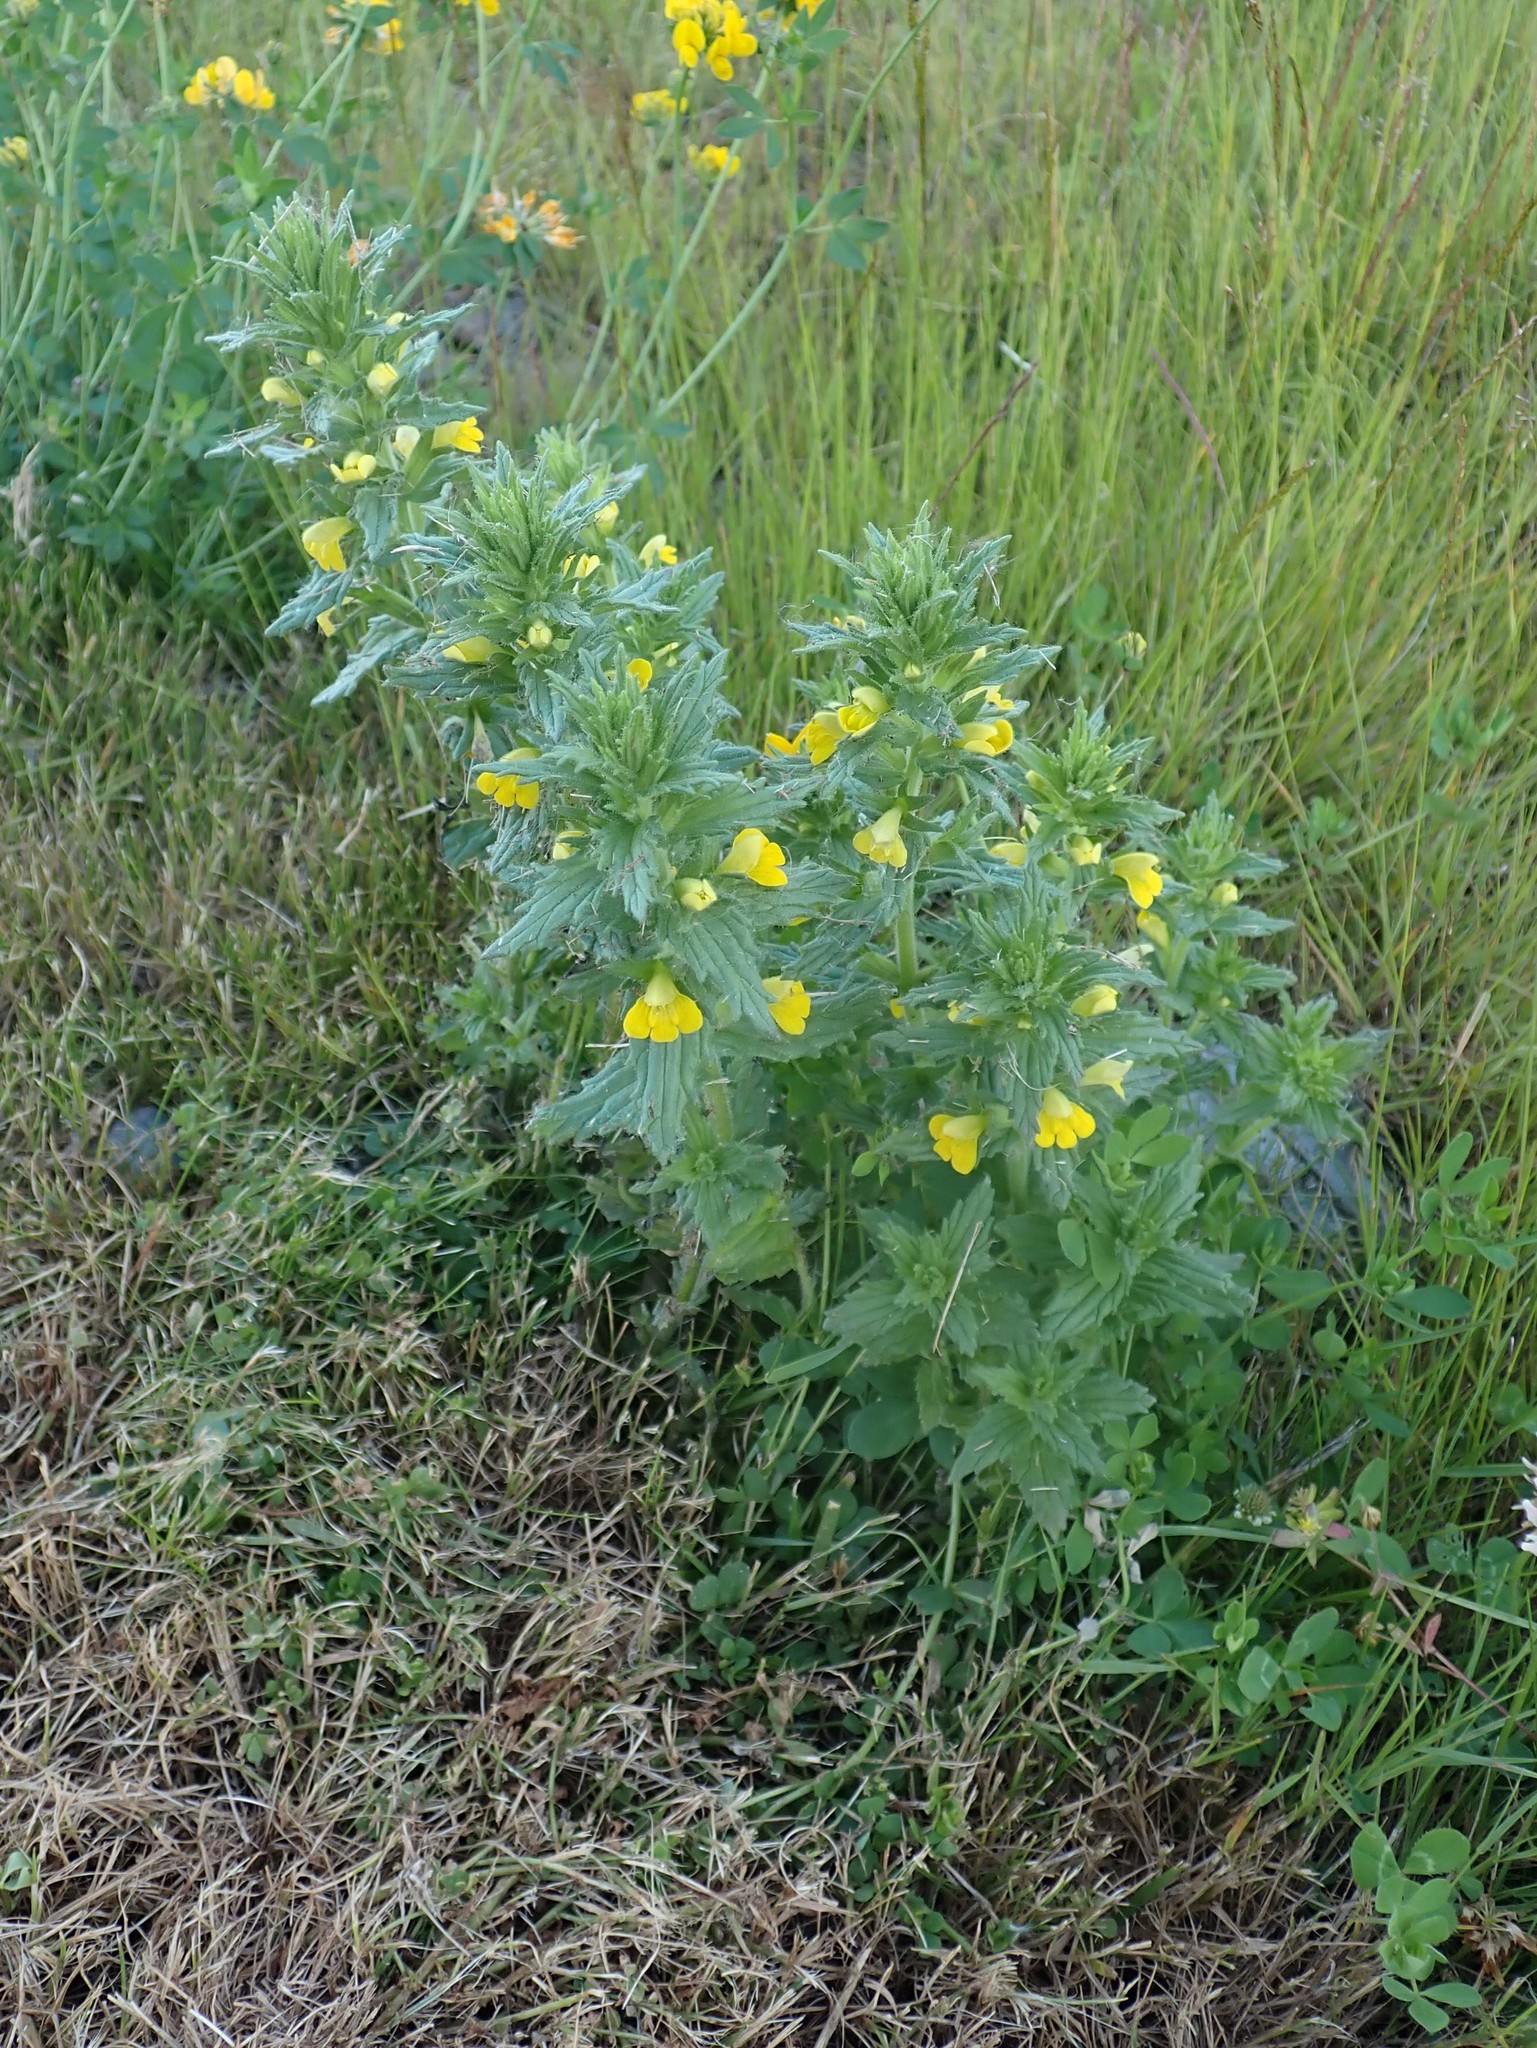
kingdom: Plantae
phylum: Tracheophyta
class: Magnoliopsida
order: Lamiales
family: Orobanchaceae
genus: Bellardia
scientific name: Bellardia viscosa
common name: Sticky parentucellia
